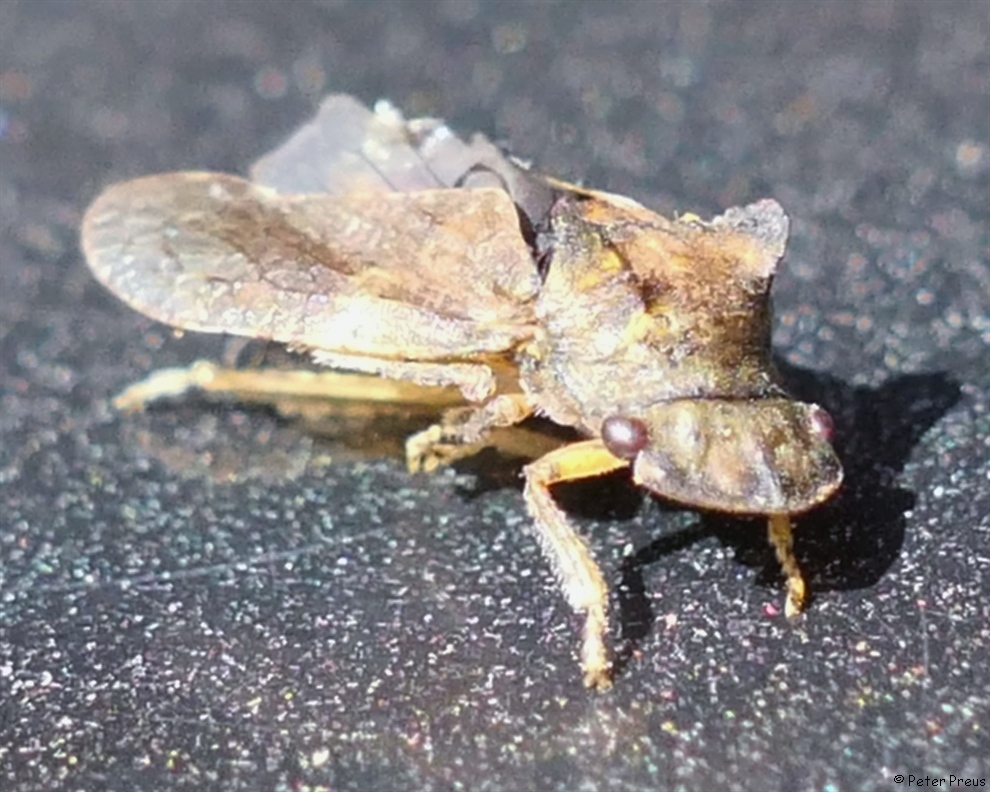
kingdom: Animalia
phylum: Arthropoda
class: Insecta
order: Hemiptera
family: Cicadellidae
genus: Ledra
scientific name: Ledra aurita
